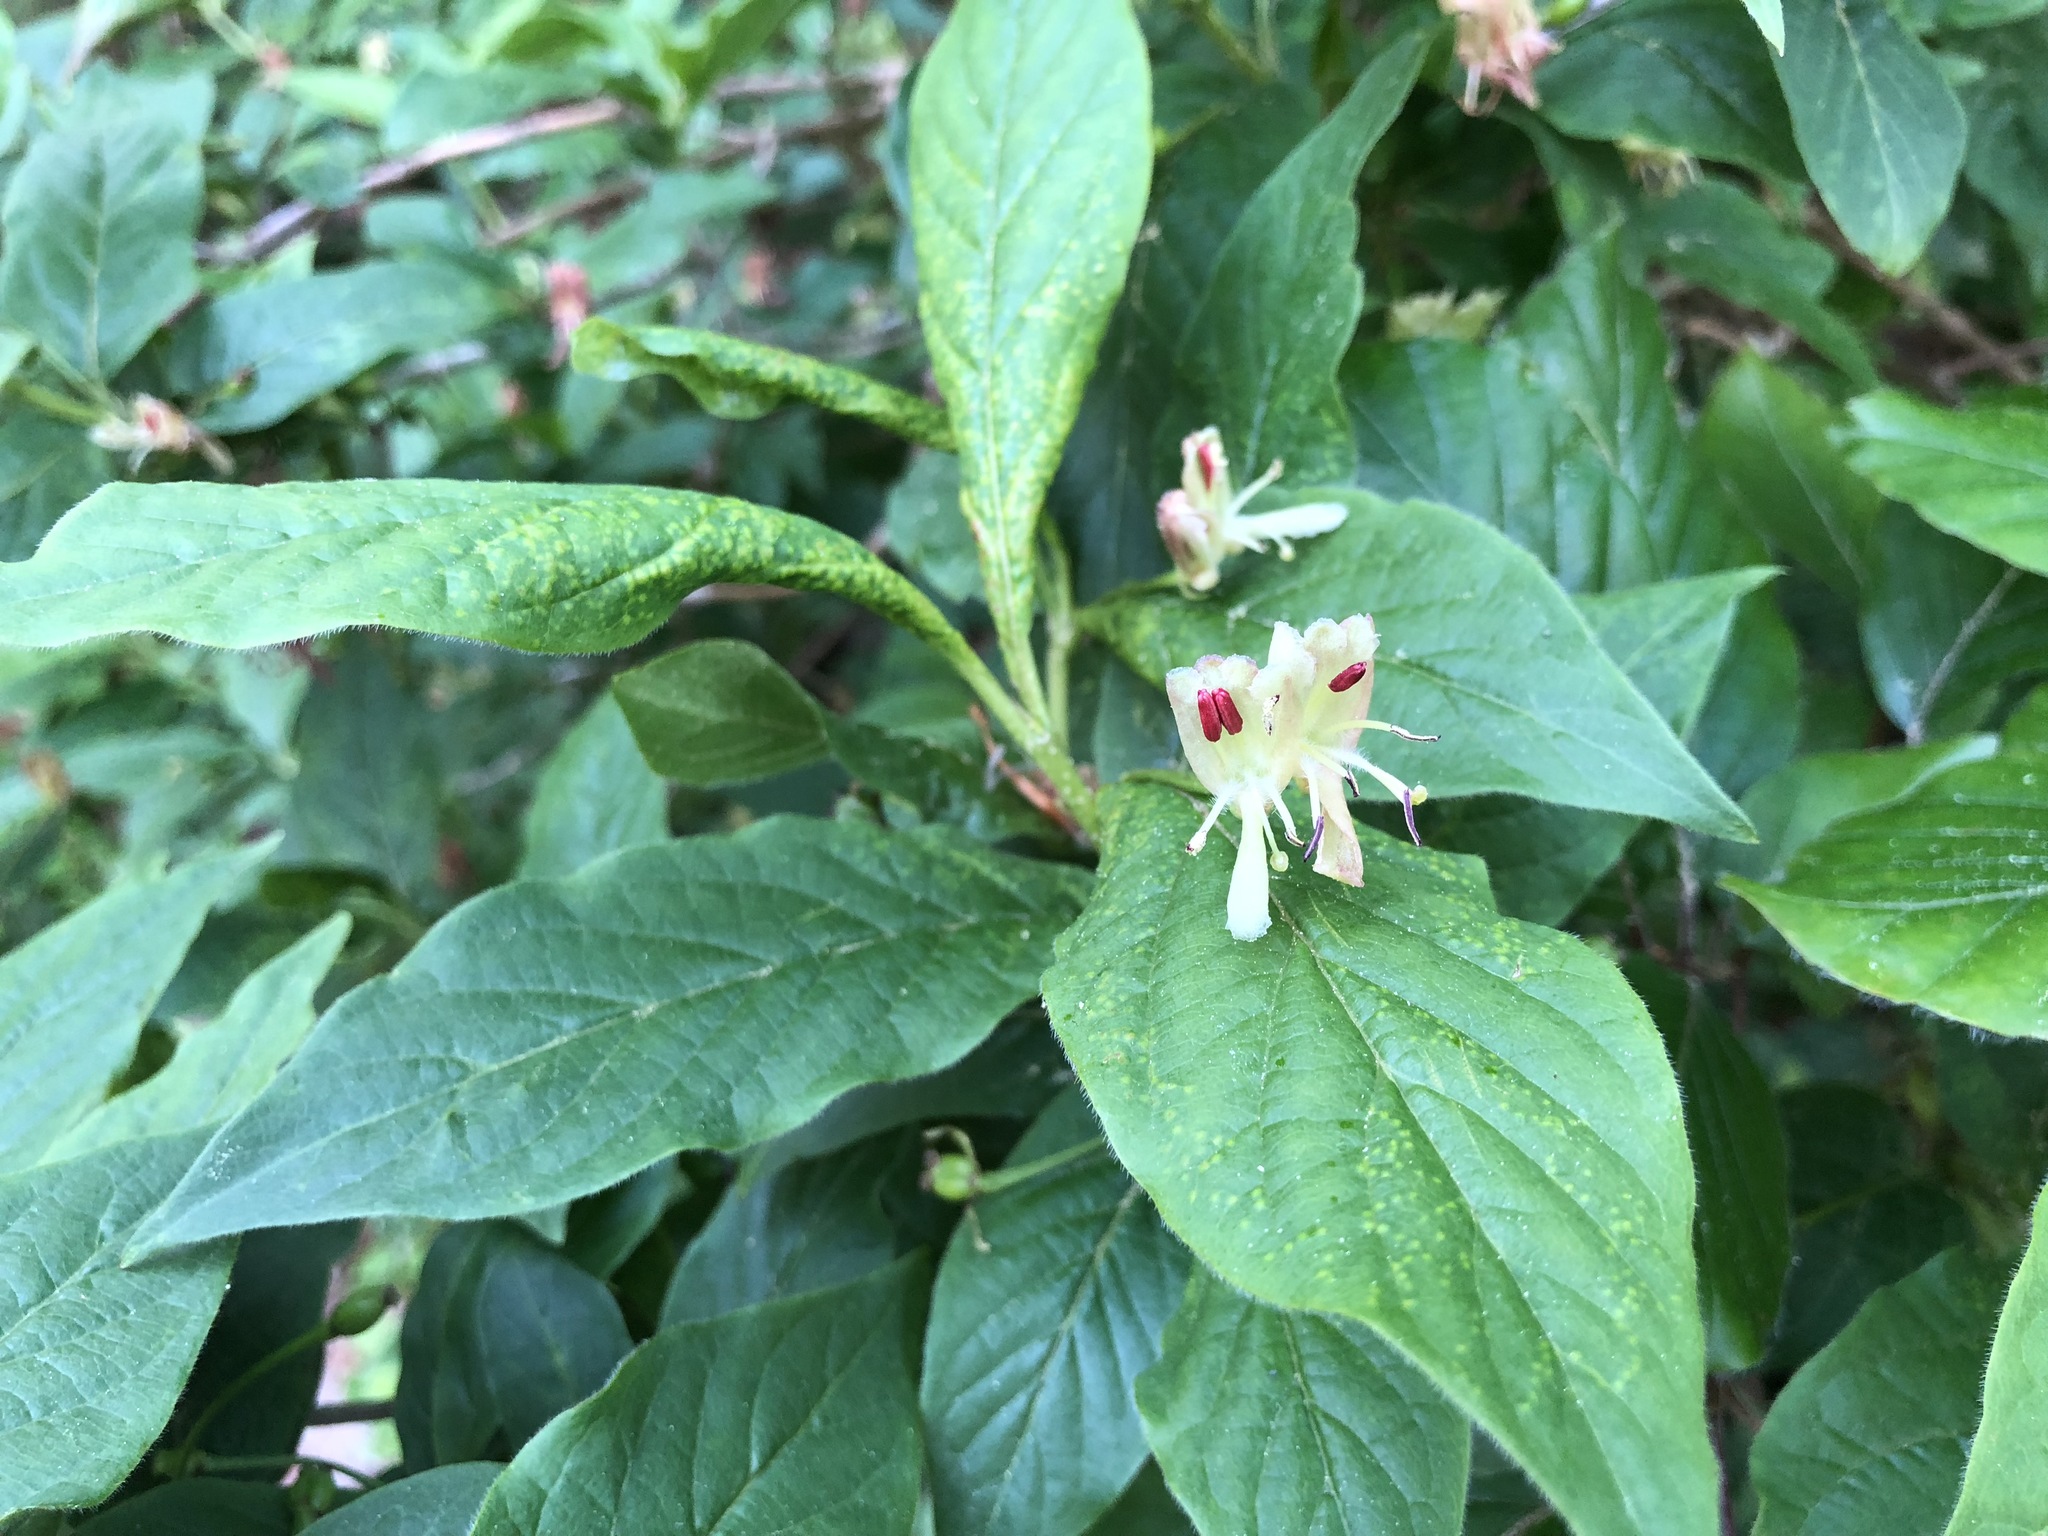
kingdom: Plantae
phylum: Tracheophyta
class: Magnoliopsida
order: Dipsacales
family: Caprifoliaceae
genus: Lonicera
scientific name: Lonicera alpigena
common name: Alpine honeysuckle
